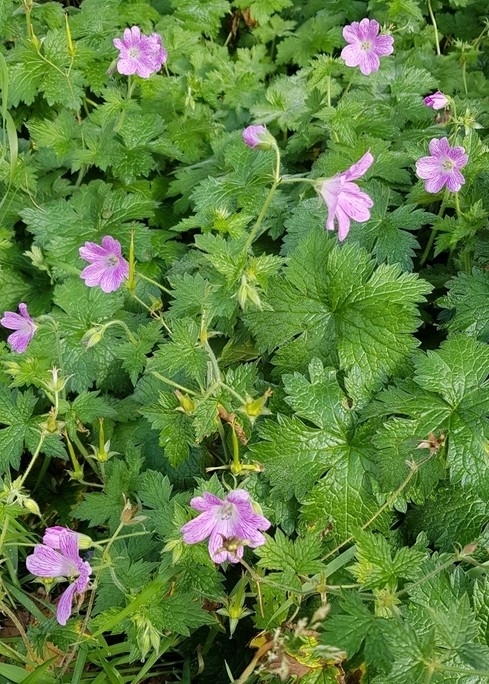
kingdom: Plantae
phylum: Tracheophyta
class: Magnoliopsida
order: Geraniales
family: Geraniaceae
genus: Geranium
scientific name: Geranium oxonianum
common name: Druce's crane's-bill
